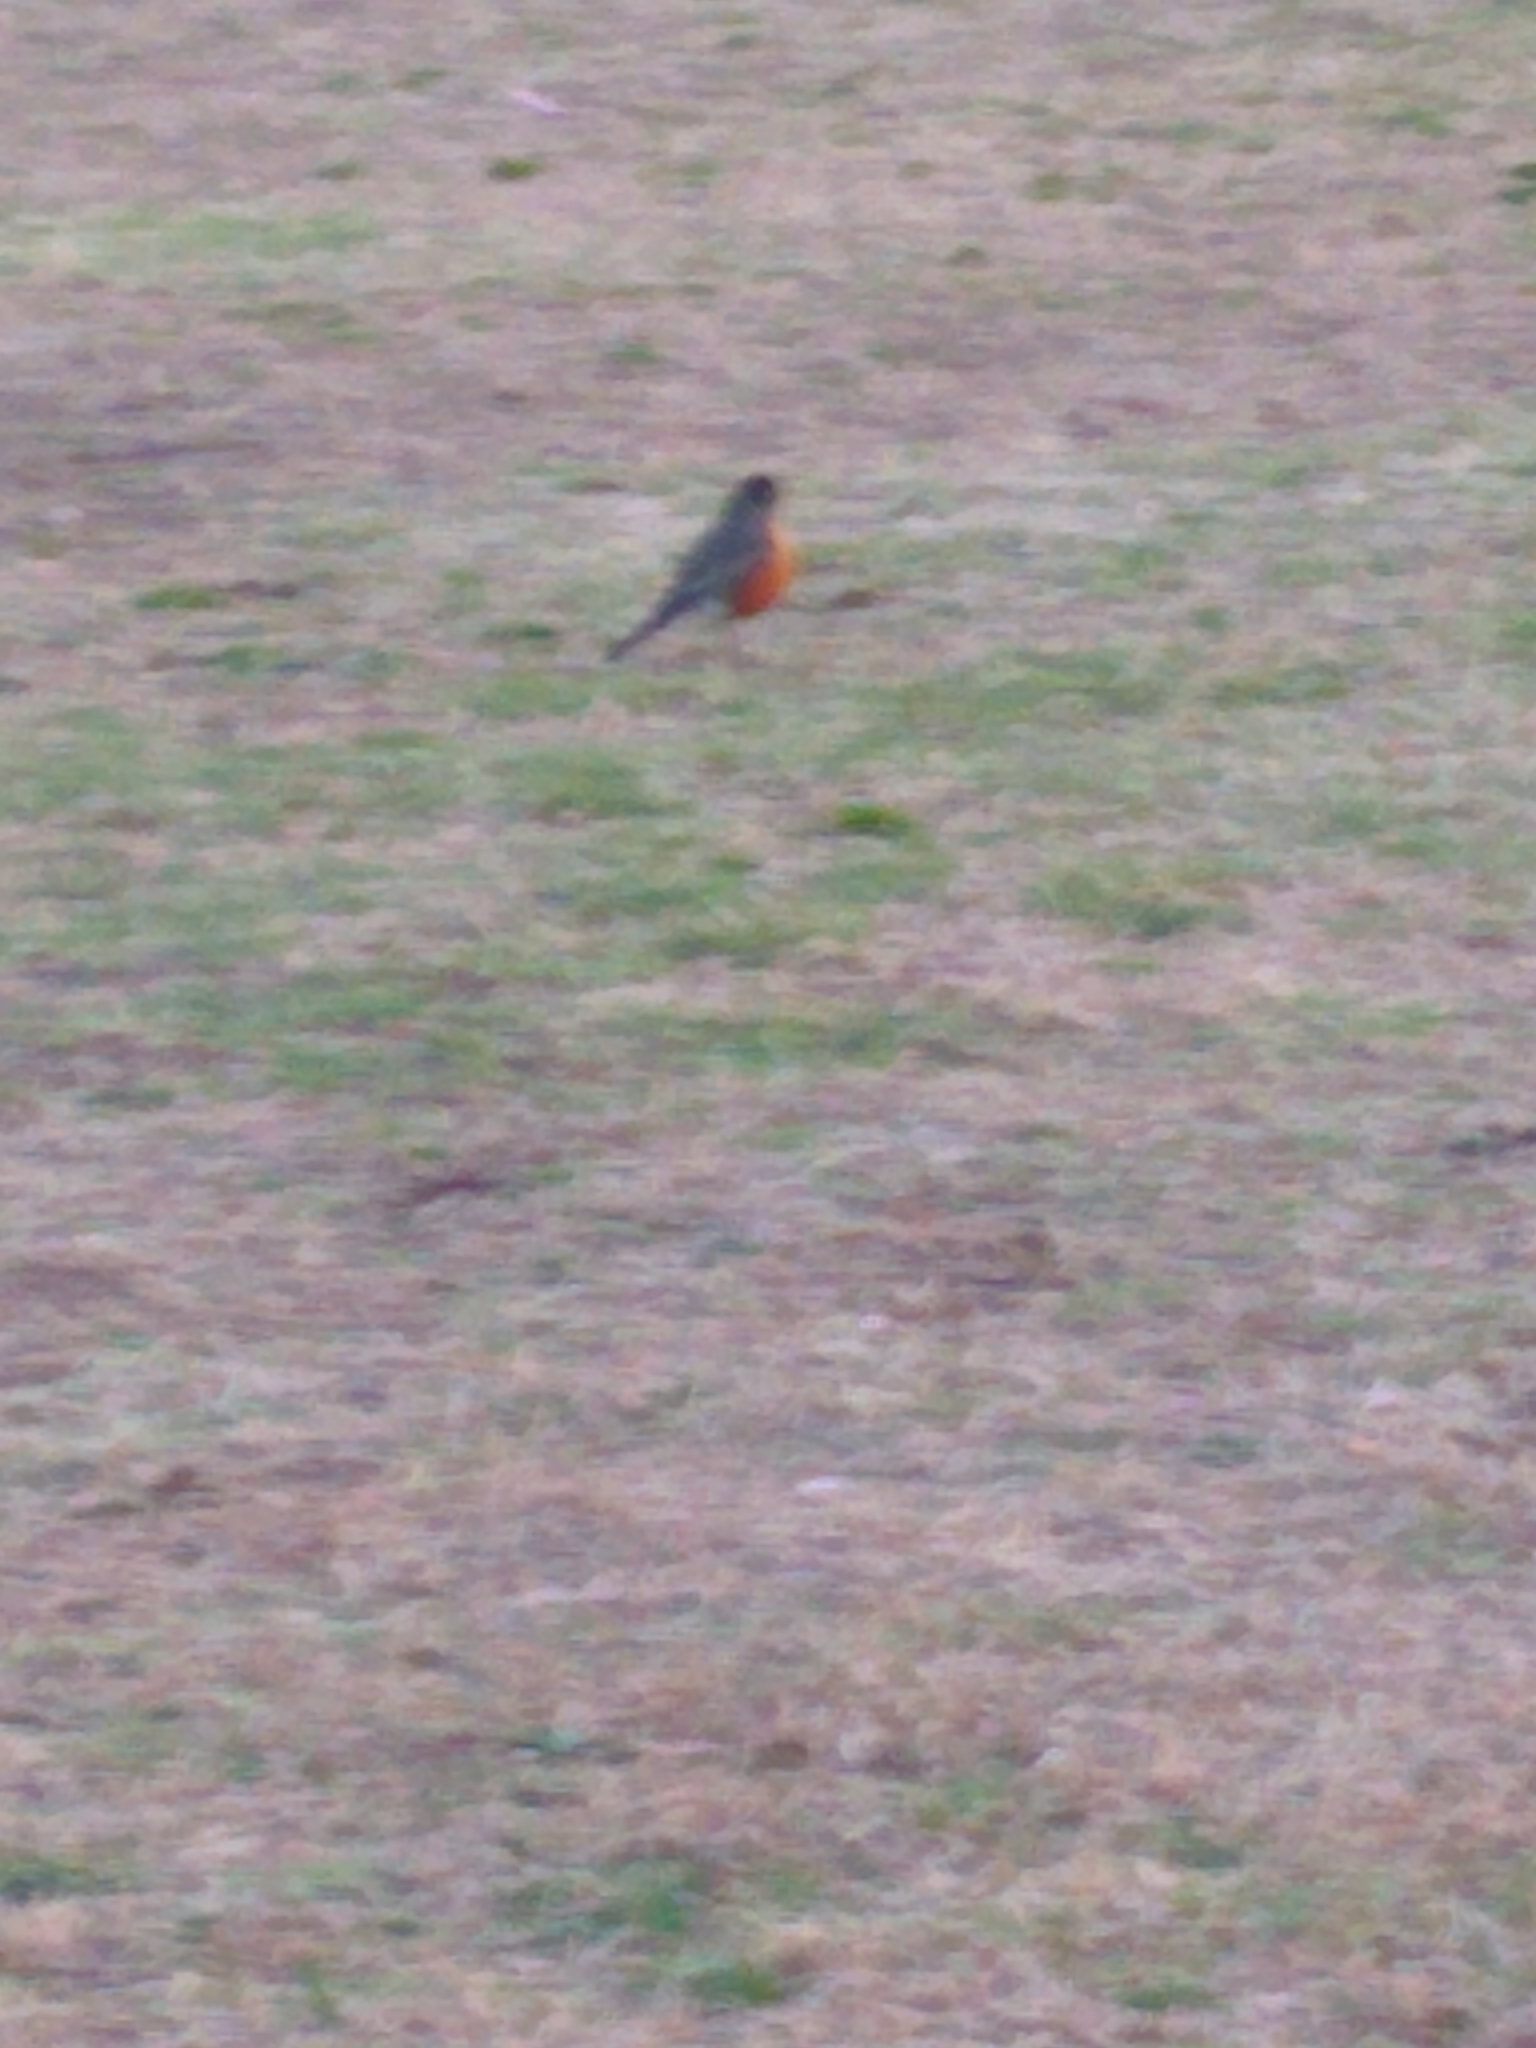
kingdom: Animalia
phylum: Chordata
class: Aves
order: Passeriformes
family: Turdidae
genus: Turdus
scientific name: Turdus migratorius
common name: American robin
